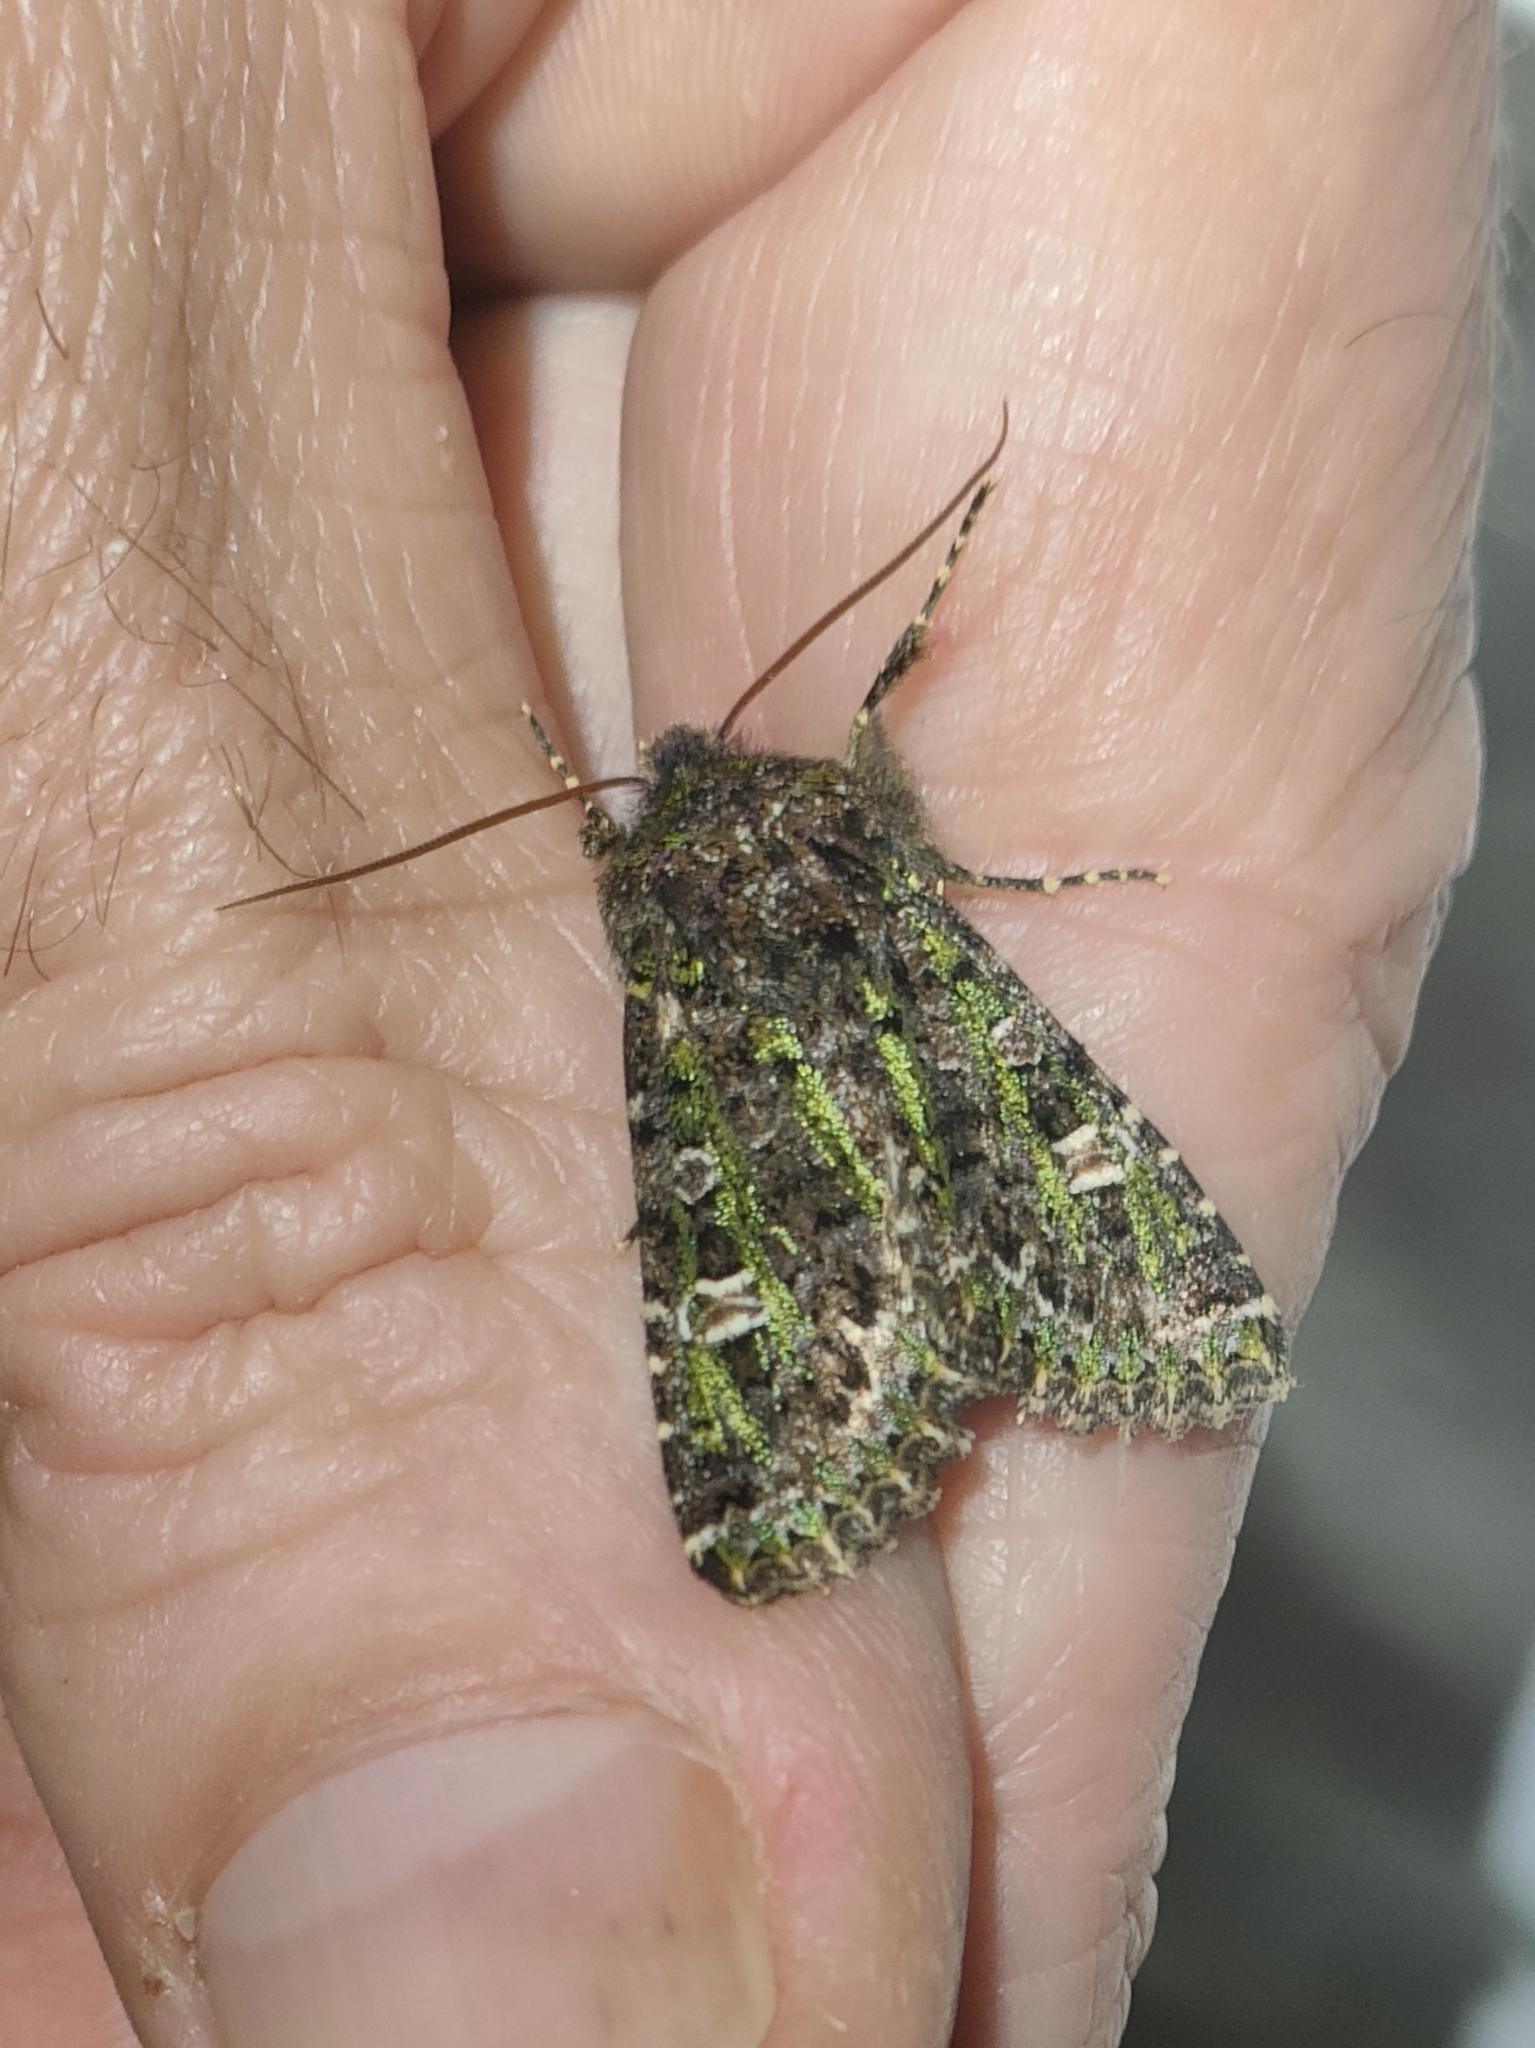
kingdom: Animalia
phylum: Arthropoda
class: Insecta
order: Lepidoptera
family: Noctuidae
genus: Valeria
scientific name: Valeria jaspidea
